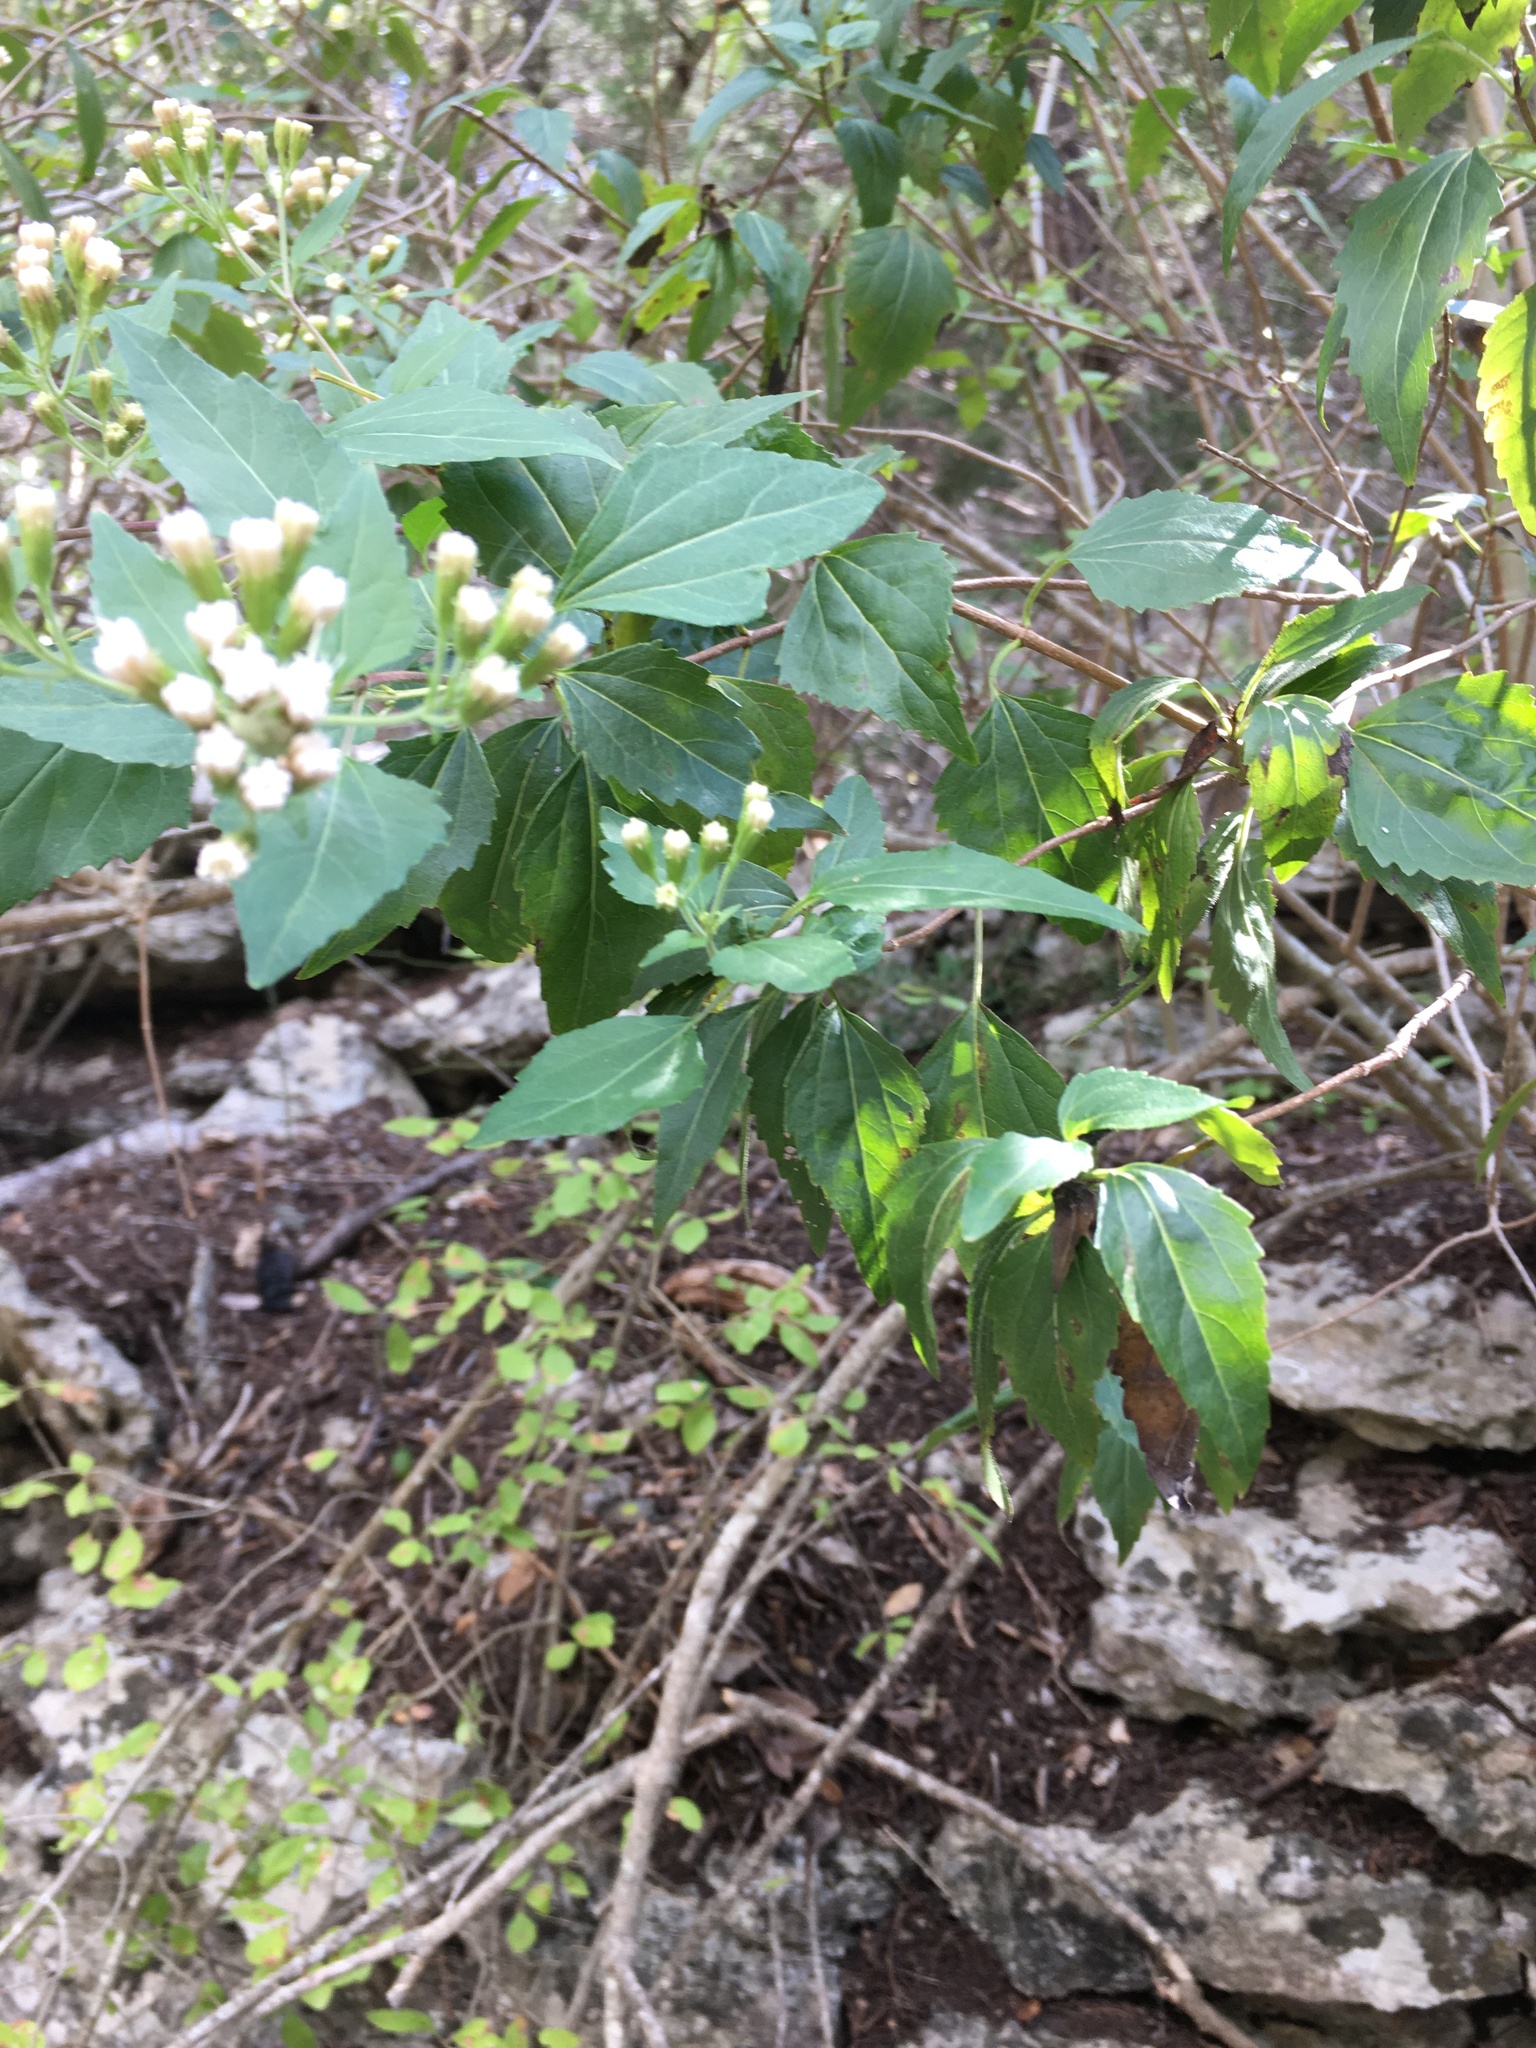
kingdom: Plantae
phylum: Tracheophyta
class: Magnoliopsida
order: Asterales
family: Asteraceae
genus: Ageratina
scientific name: Ageratina havanensis
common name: Havana snakeroot
